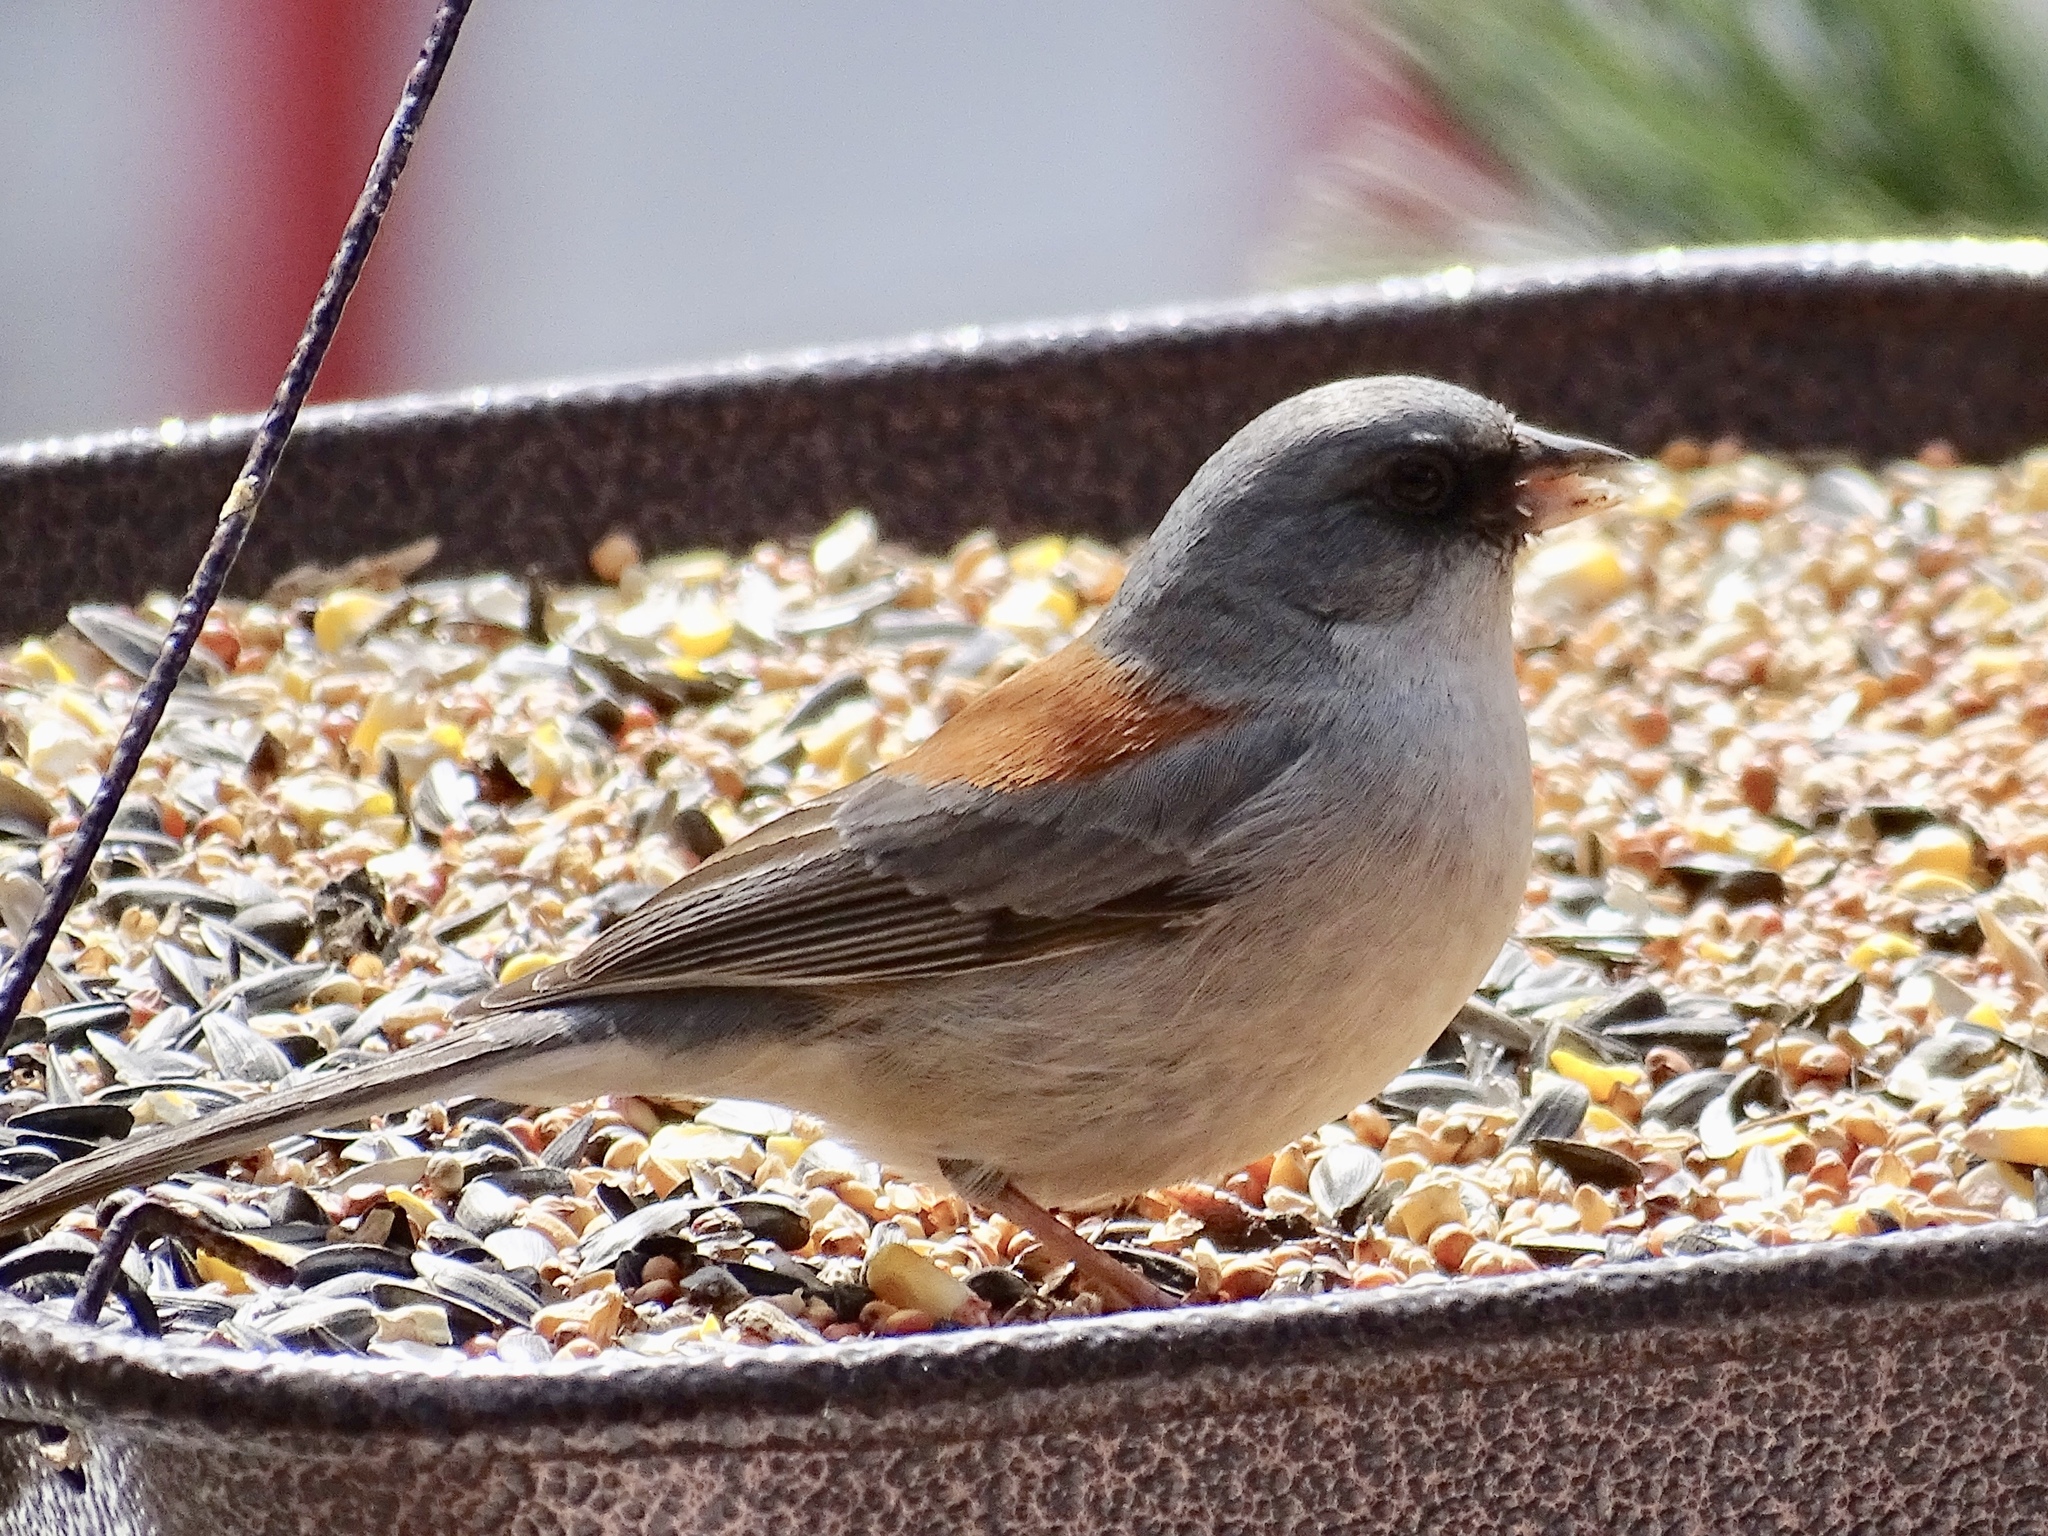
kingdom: Animalia
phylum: Chordata
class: Aves
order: Passeriformes
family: Passerellidae
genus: Junco
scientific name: Junco hyemalis
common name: Dark-eyed junco
